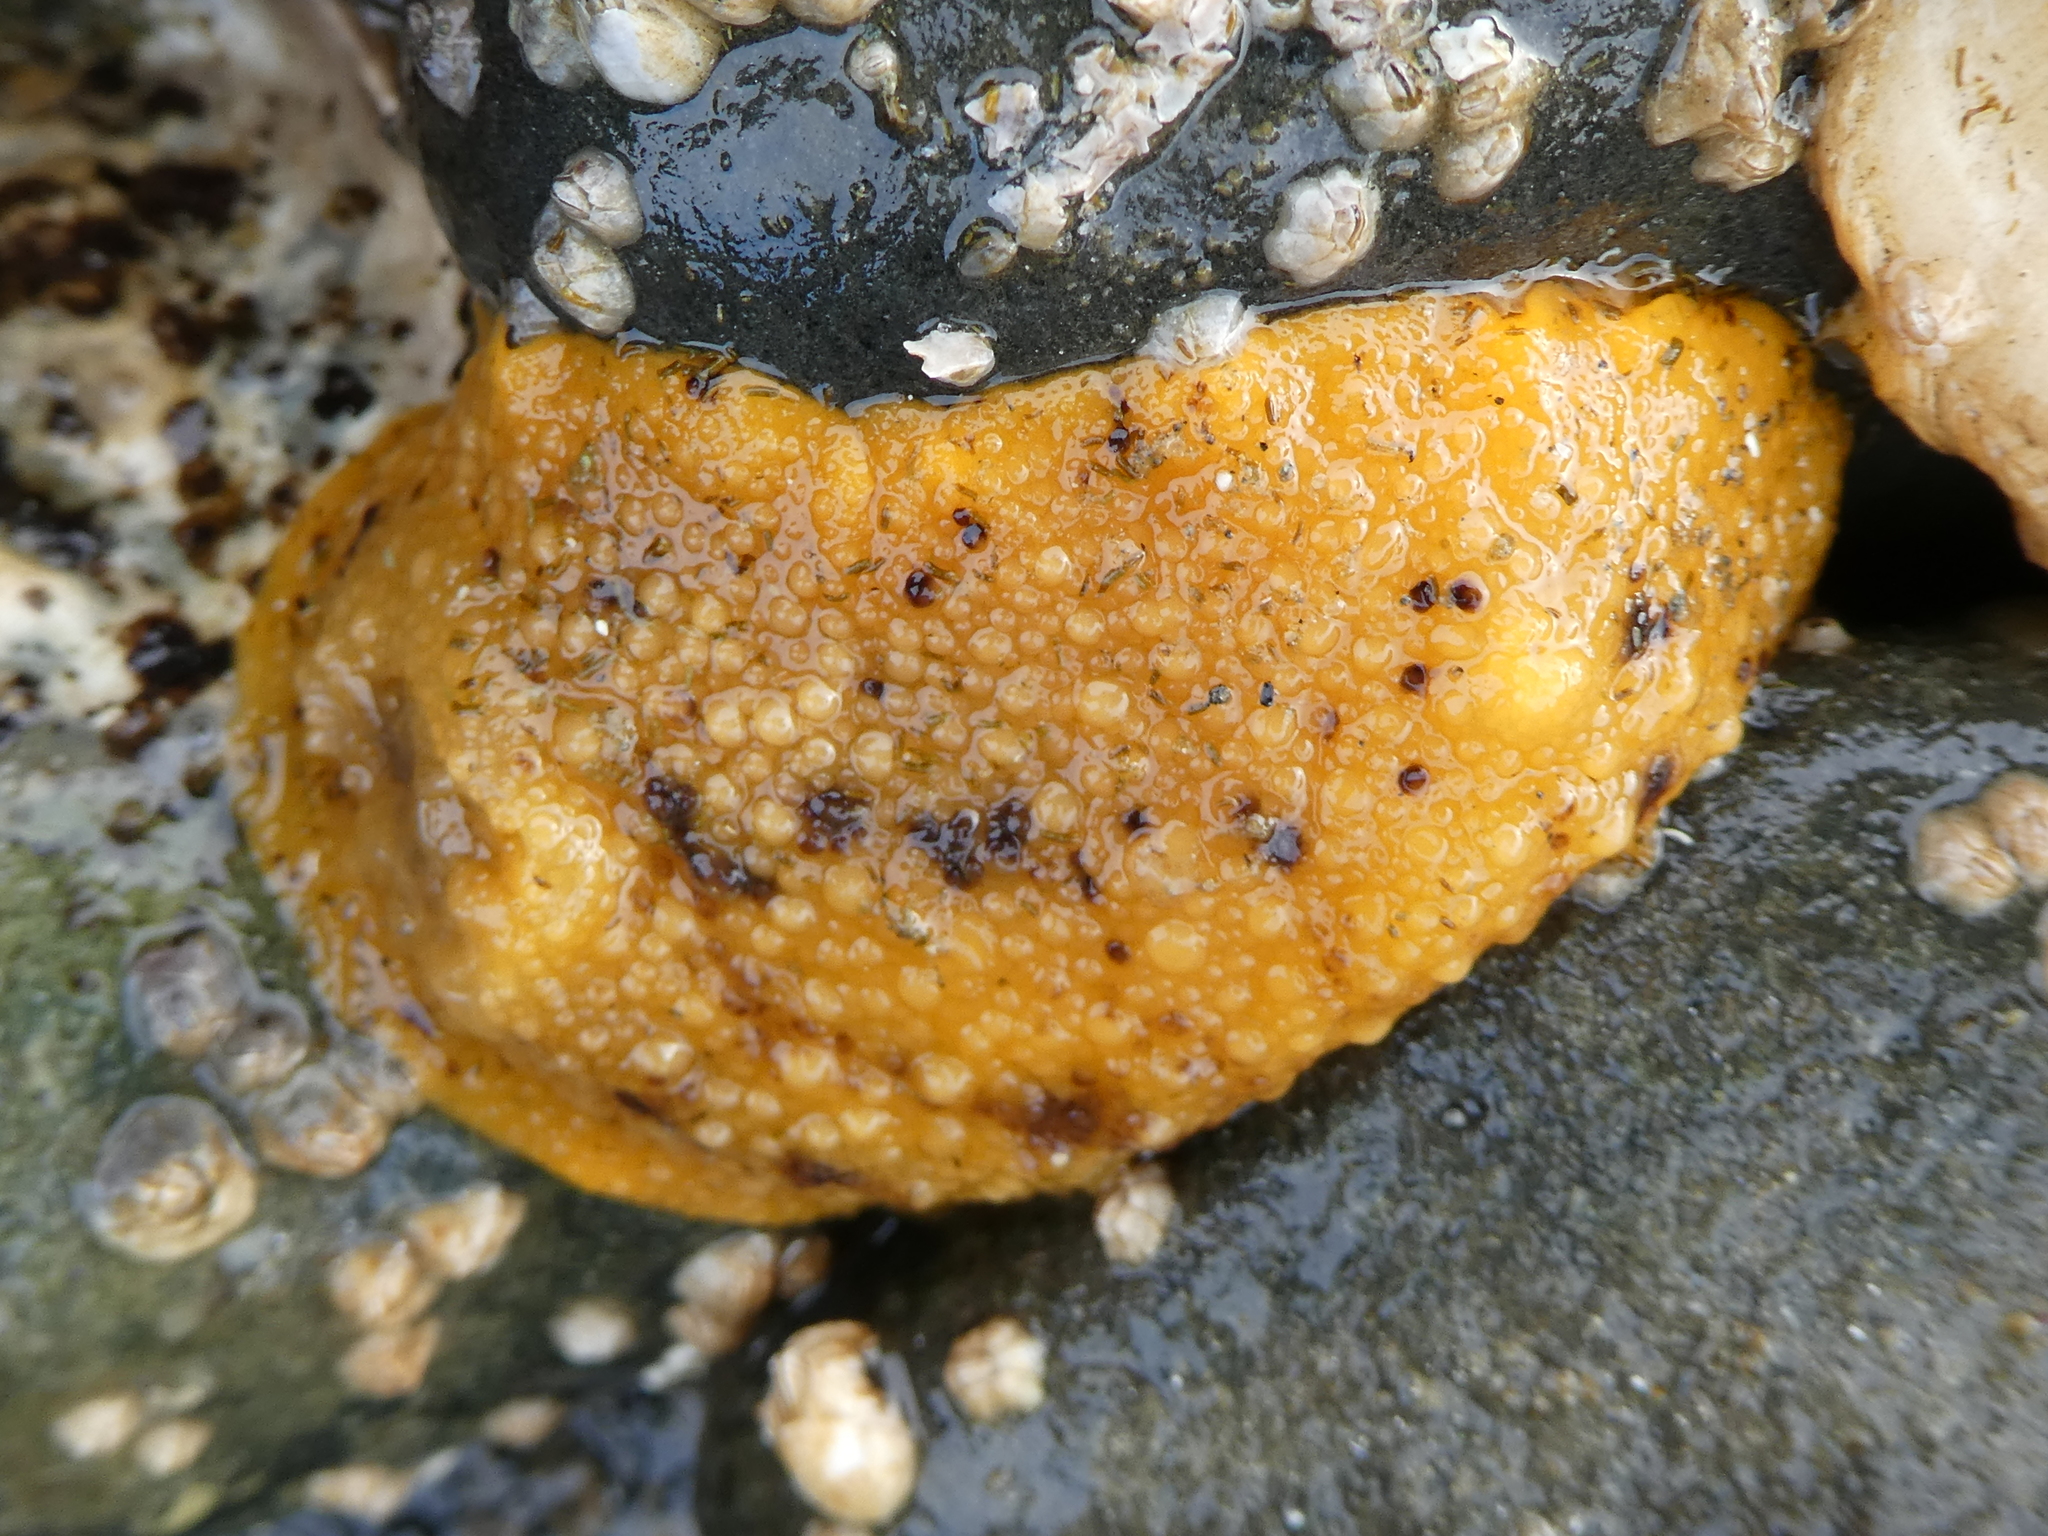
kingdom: Animalia
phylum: Mollusca
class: Gastropoda
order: Nudibranchia
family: Dorididae
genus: Doris
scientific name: Doris montereyensis
